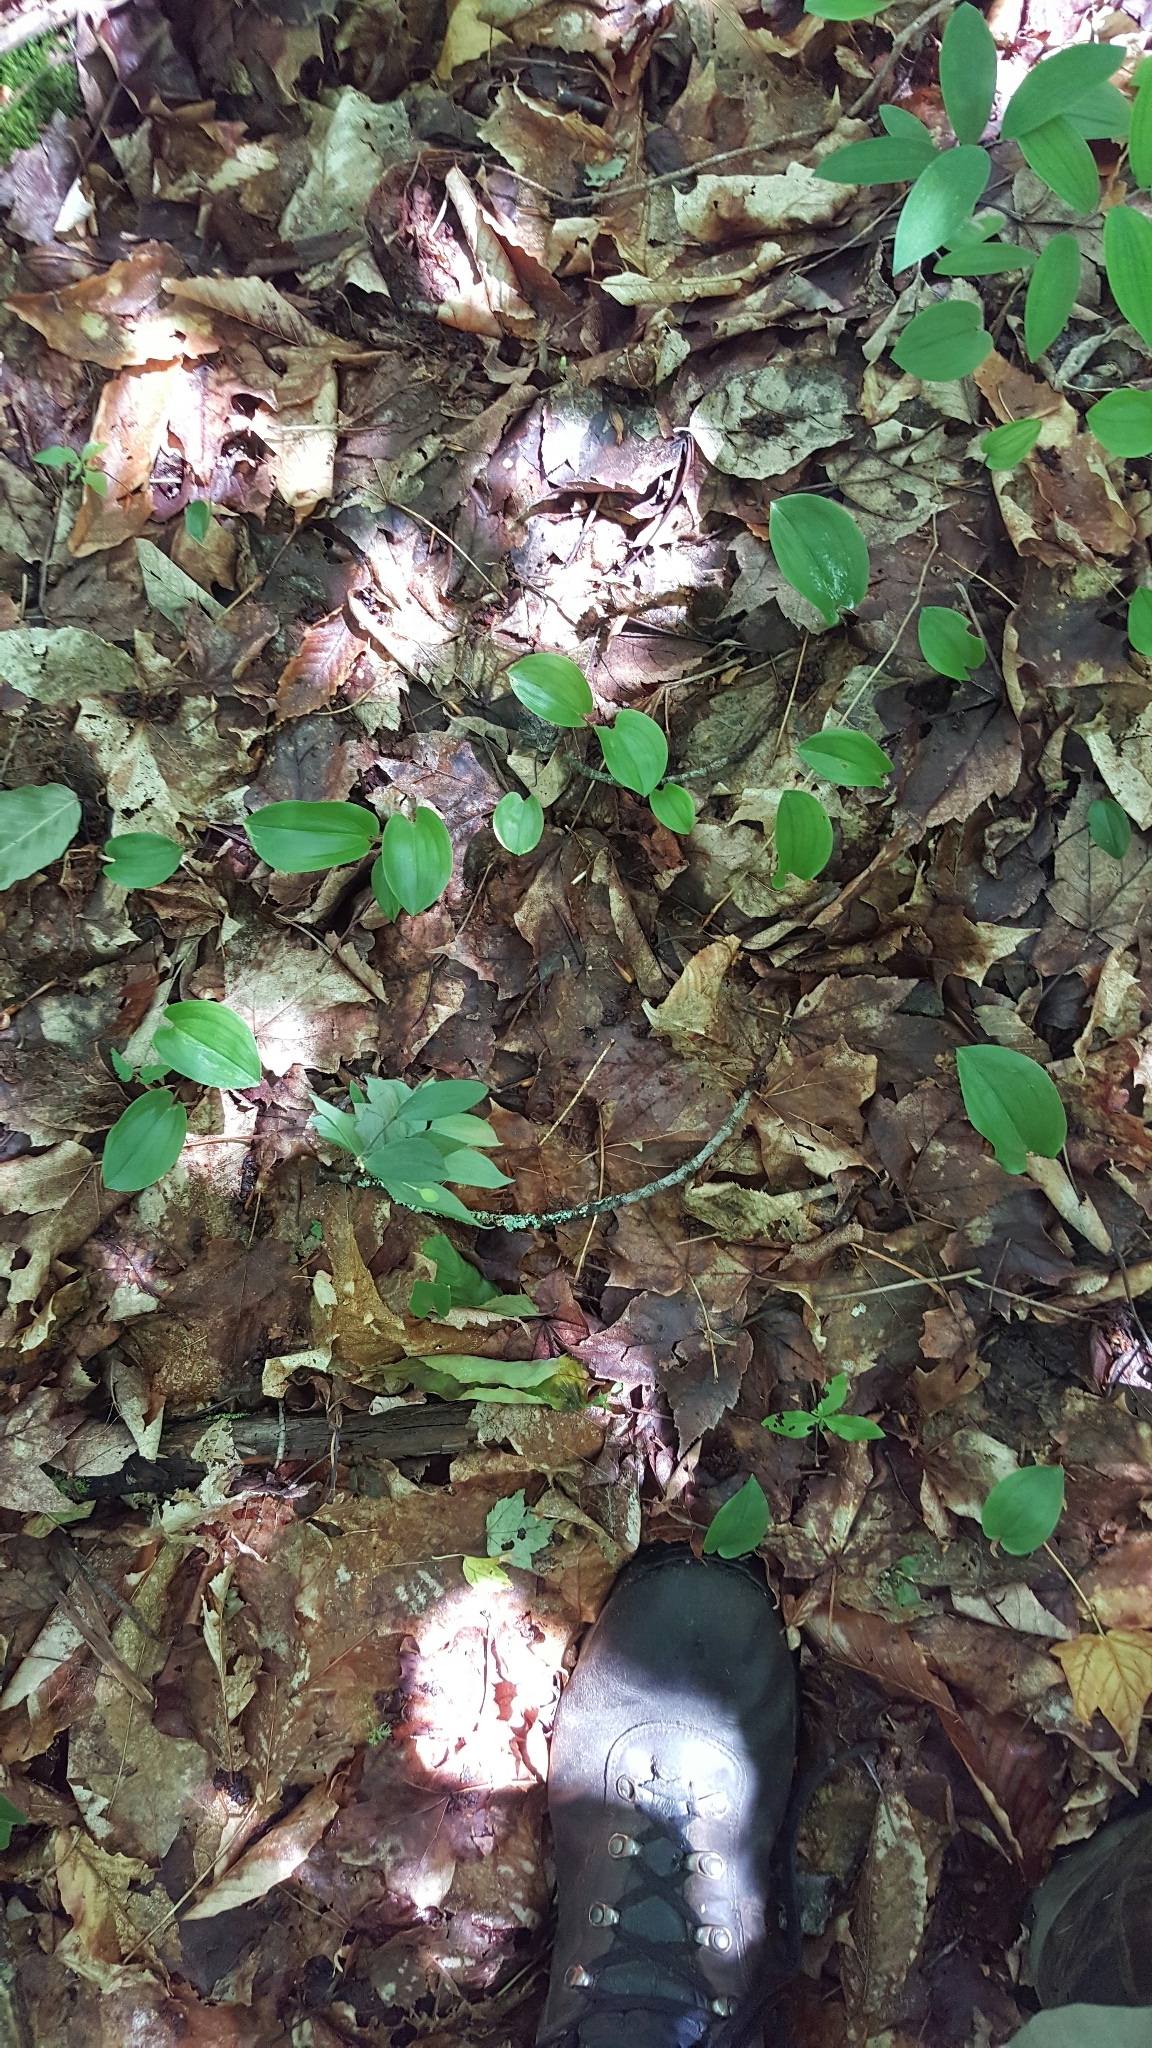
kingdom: Plantae
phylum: Tracheophyta
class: Liliopsida
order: Asparagales
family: Asparagaceae
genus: Maianthemum
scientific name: Maianthemum canadense
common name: False lily-of-the-valley
